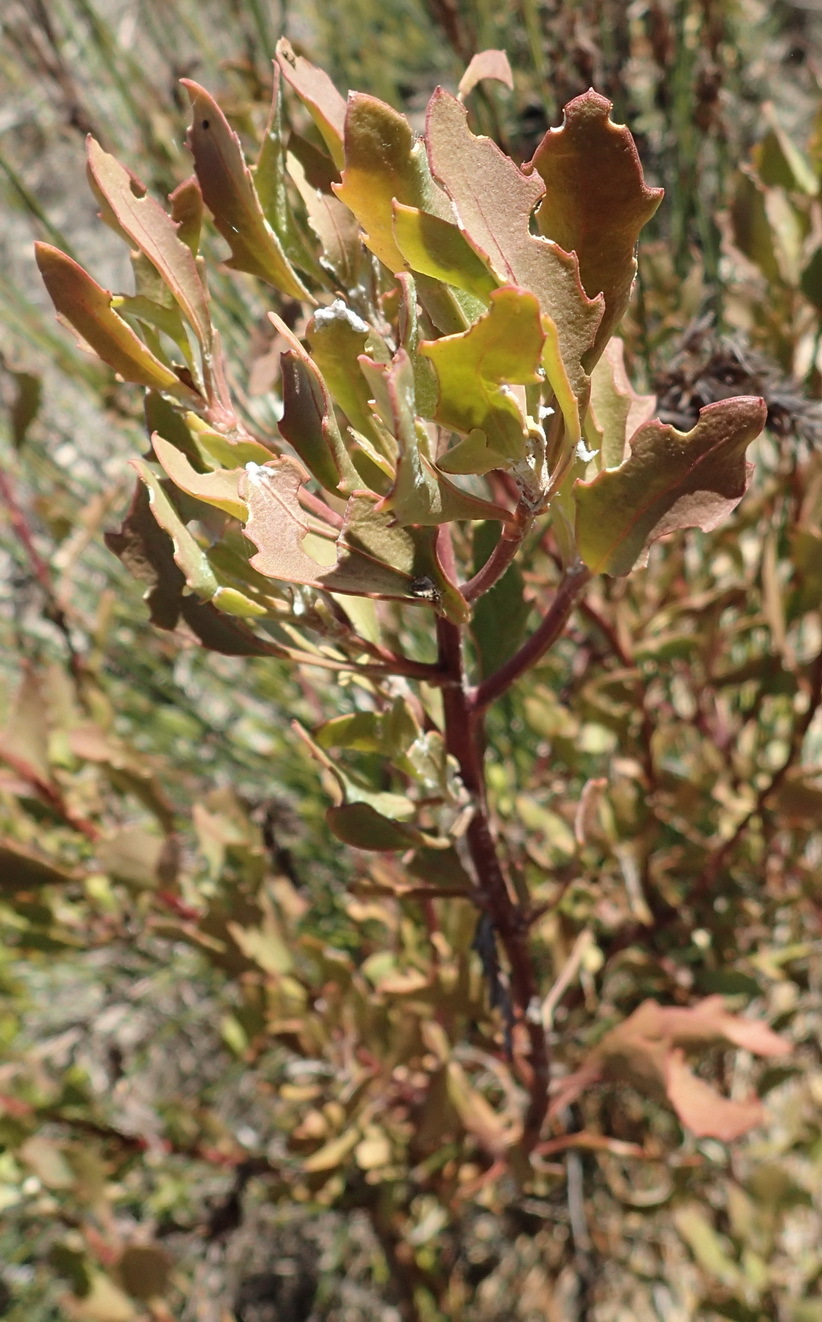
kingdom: Plantae
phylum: Tracheophyta
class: Magnoliopsida
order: Asterales
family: Asteraceae
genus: Osteospermum
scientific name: Osteospermum moniliferum
